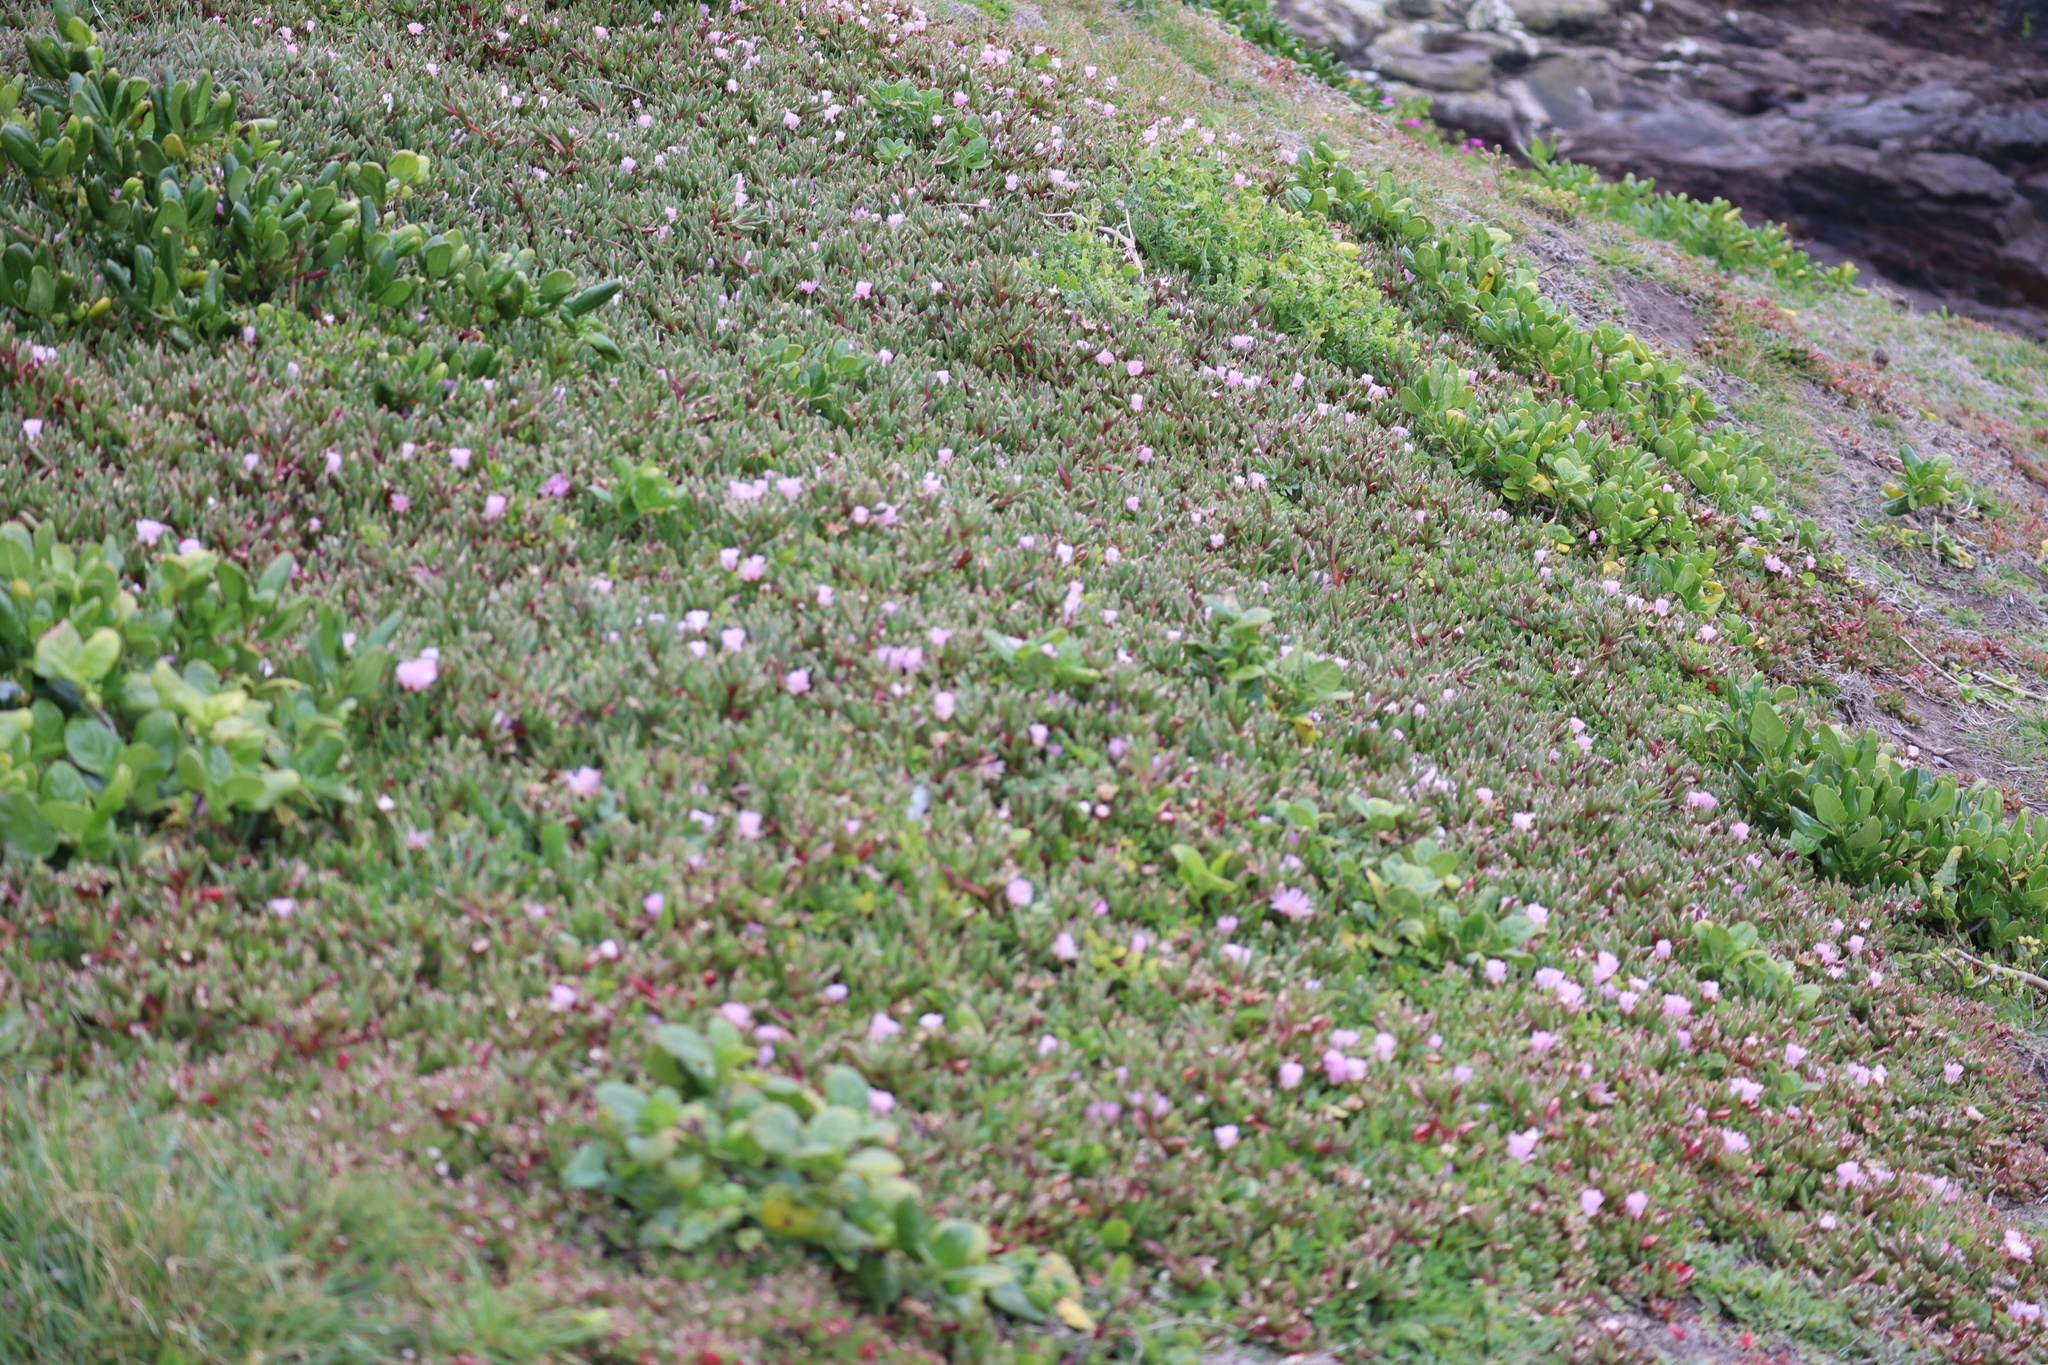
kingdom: Plantae
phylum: Tracheophyta
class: Magnoliopsida
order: Caryophyllales
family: Aizoaceae
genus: Disphyma
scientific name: Disphyma australe
